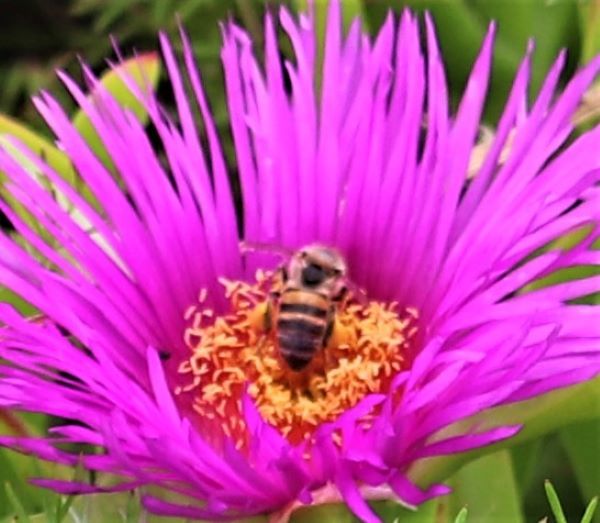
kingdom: Animalia
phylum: Arthropoda
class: Insecta
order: Hymenoptera
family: Apidae
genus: Apis
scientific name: Apis mellifera
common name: Honey bee
